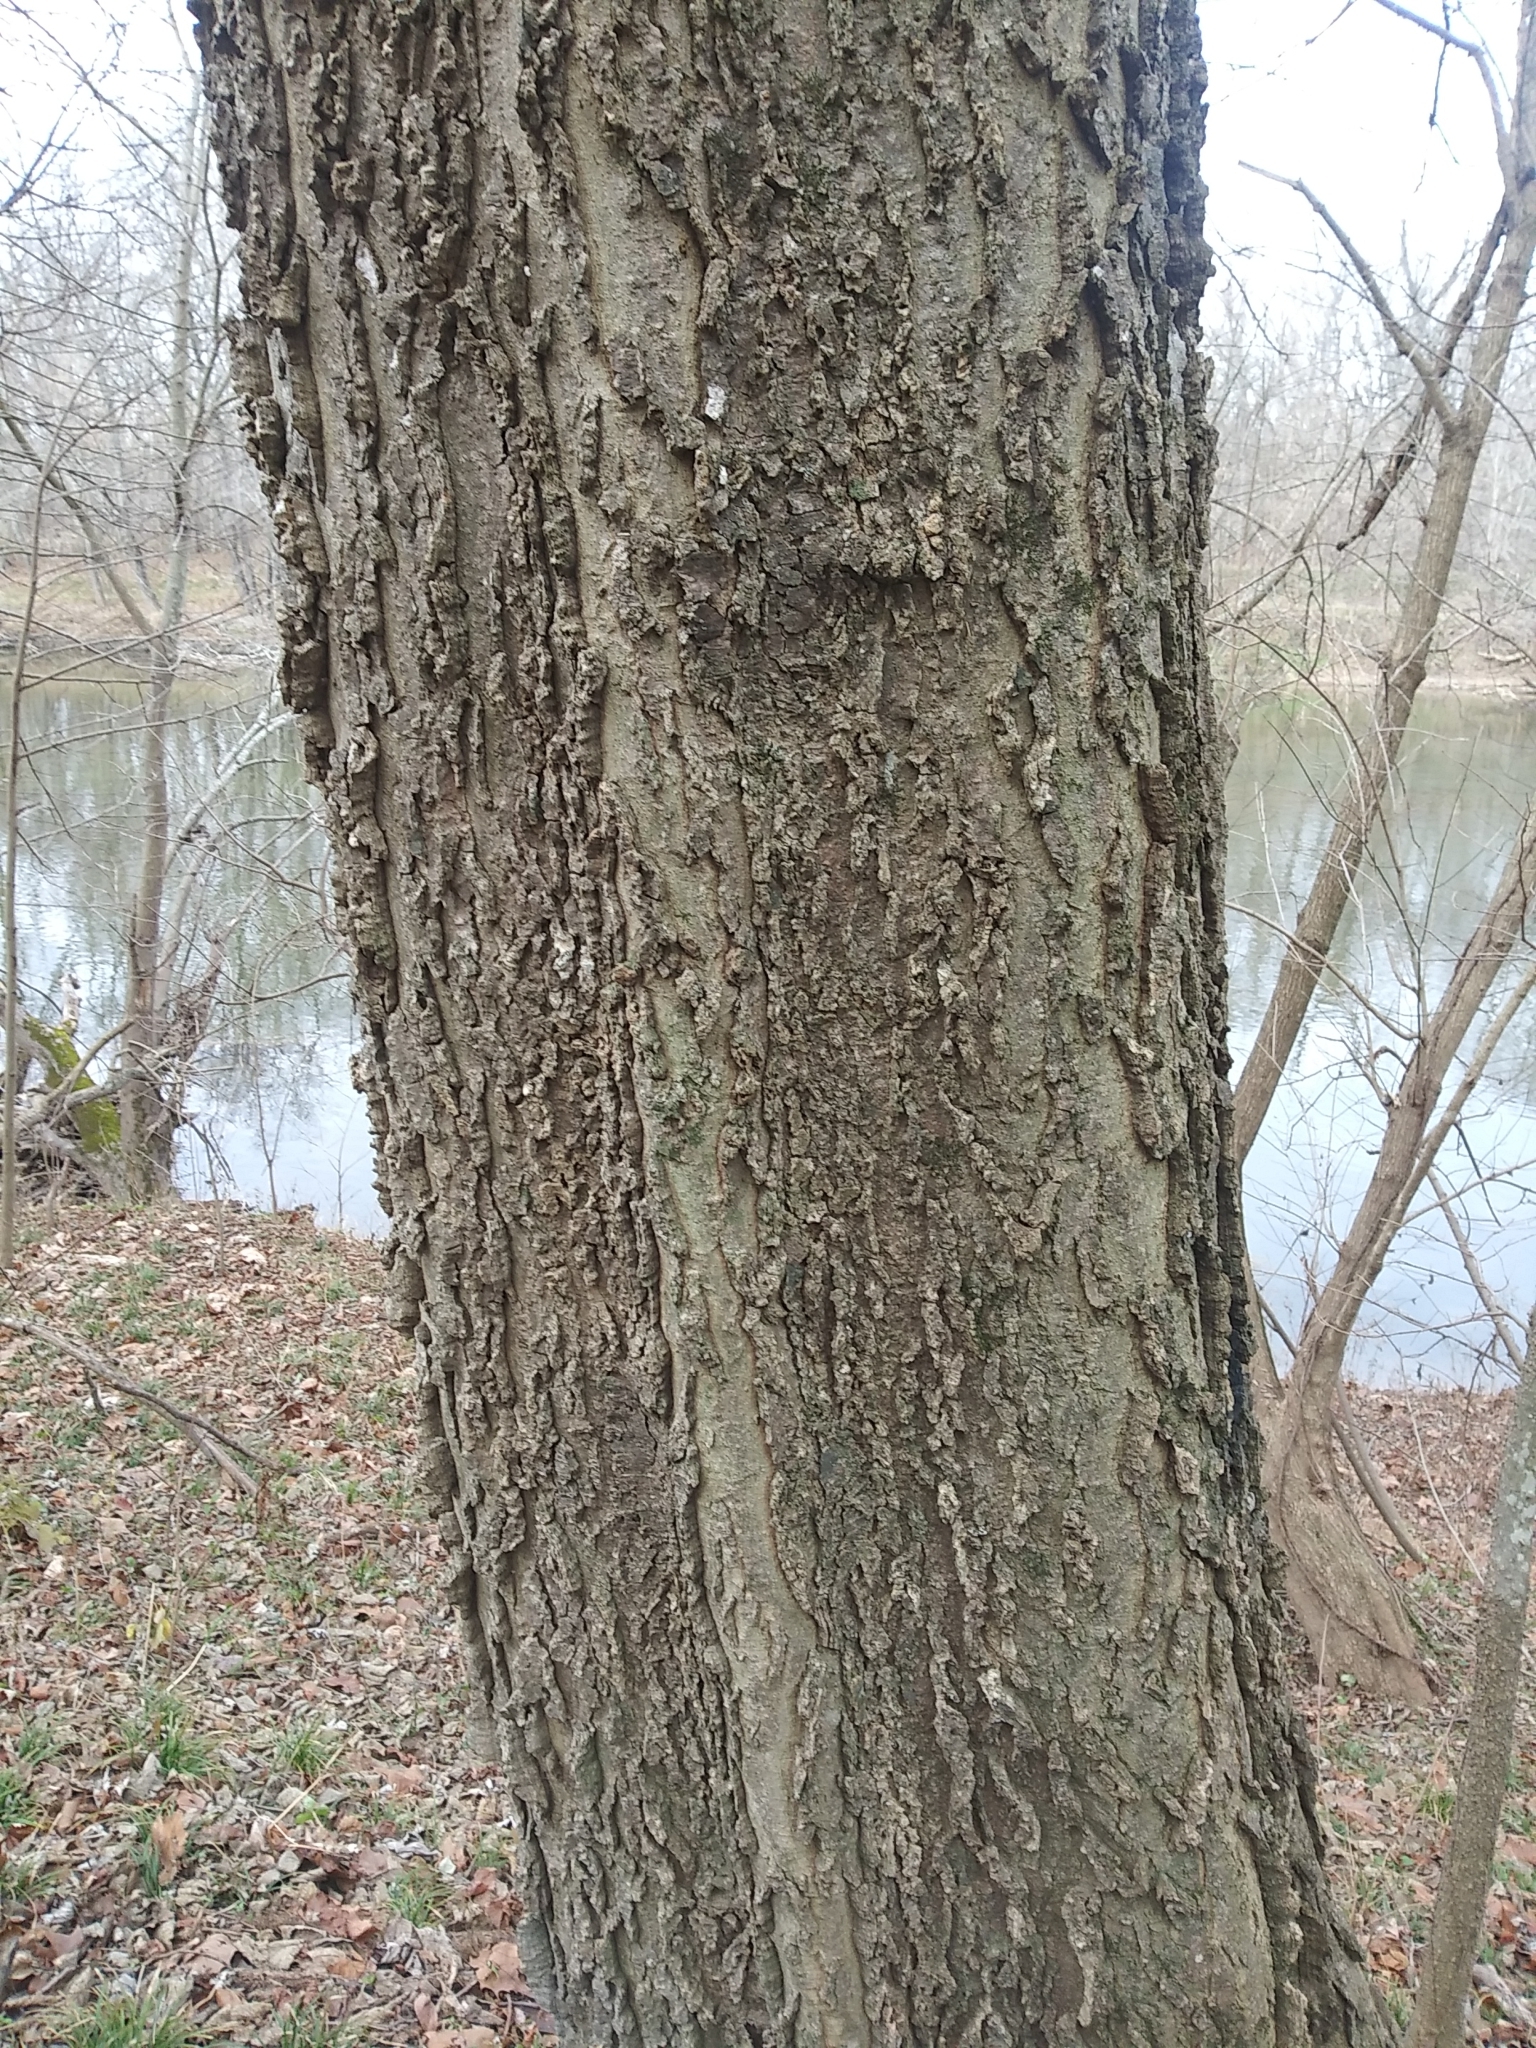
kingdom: Plantae
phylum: Tracheophyta
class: Magnoliopsida
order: Rosales
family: Cannabaceae
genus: Celtis
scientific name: Celtis occidentalis
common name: Common hackberry
